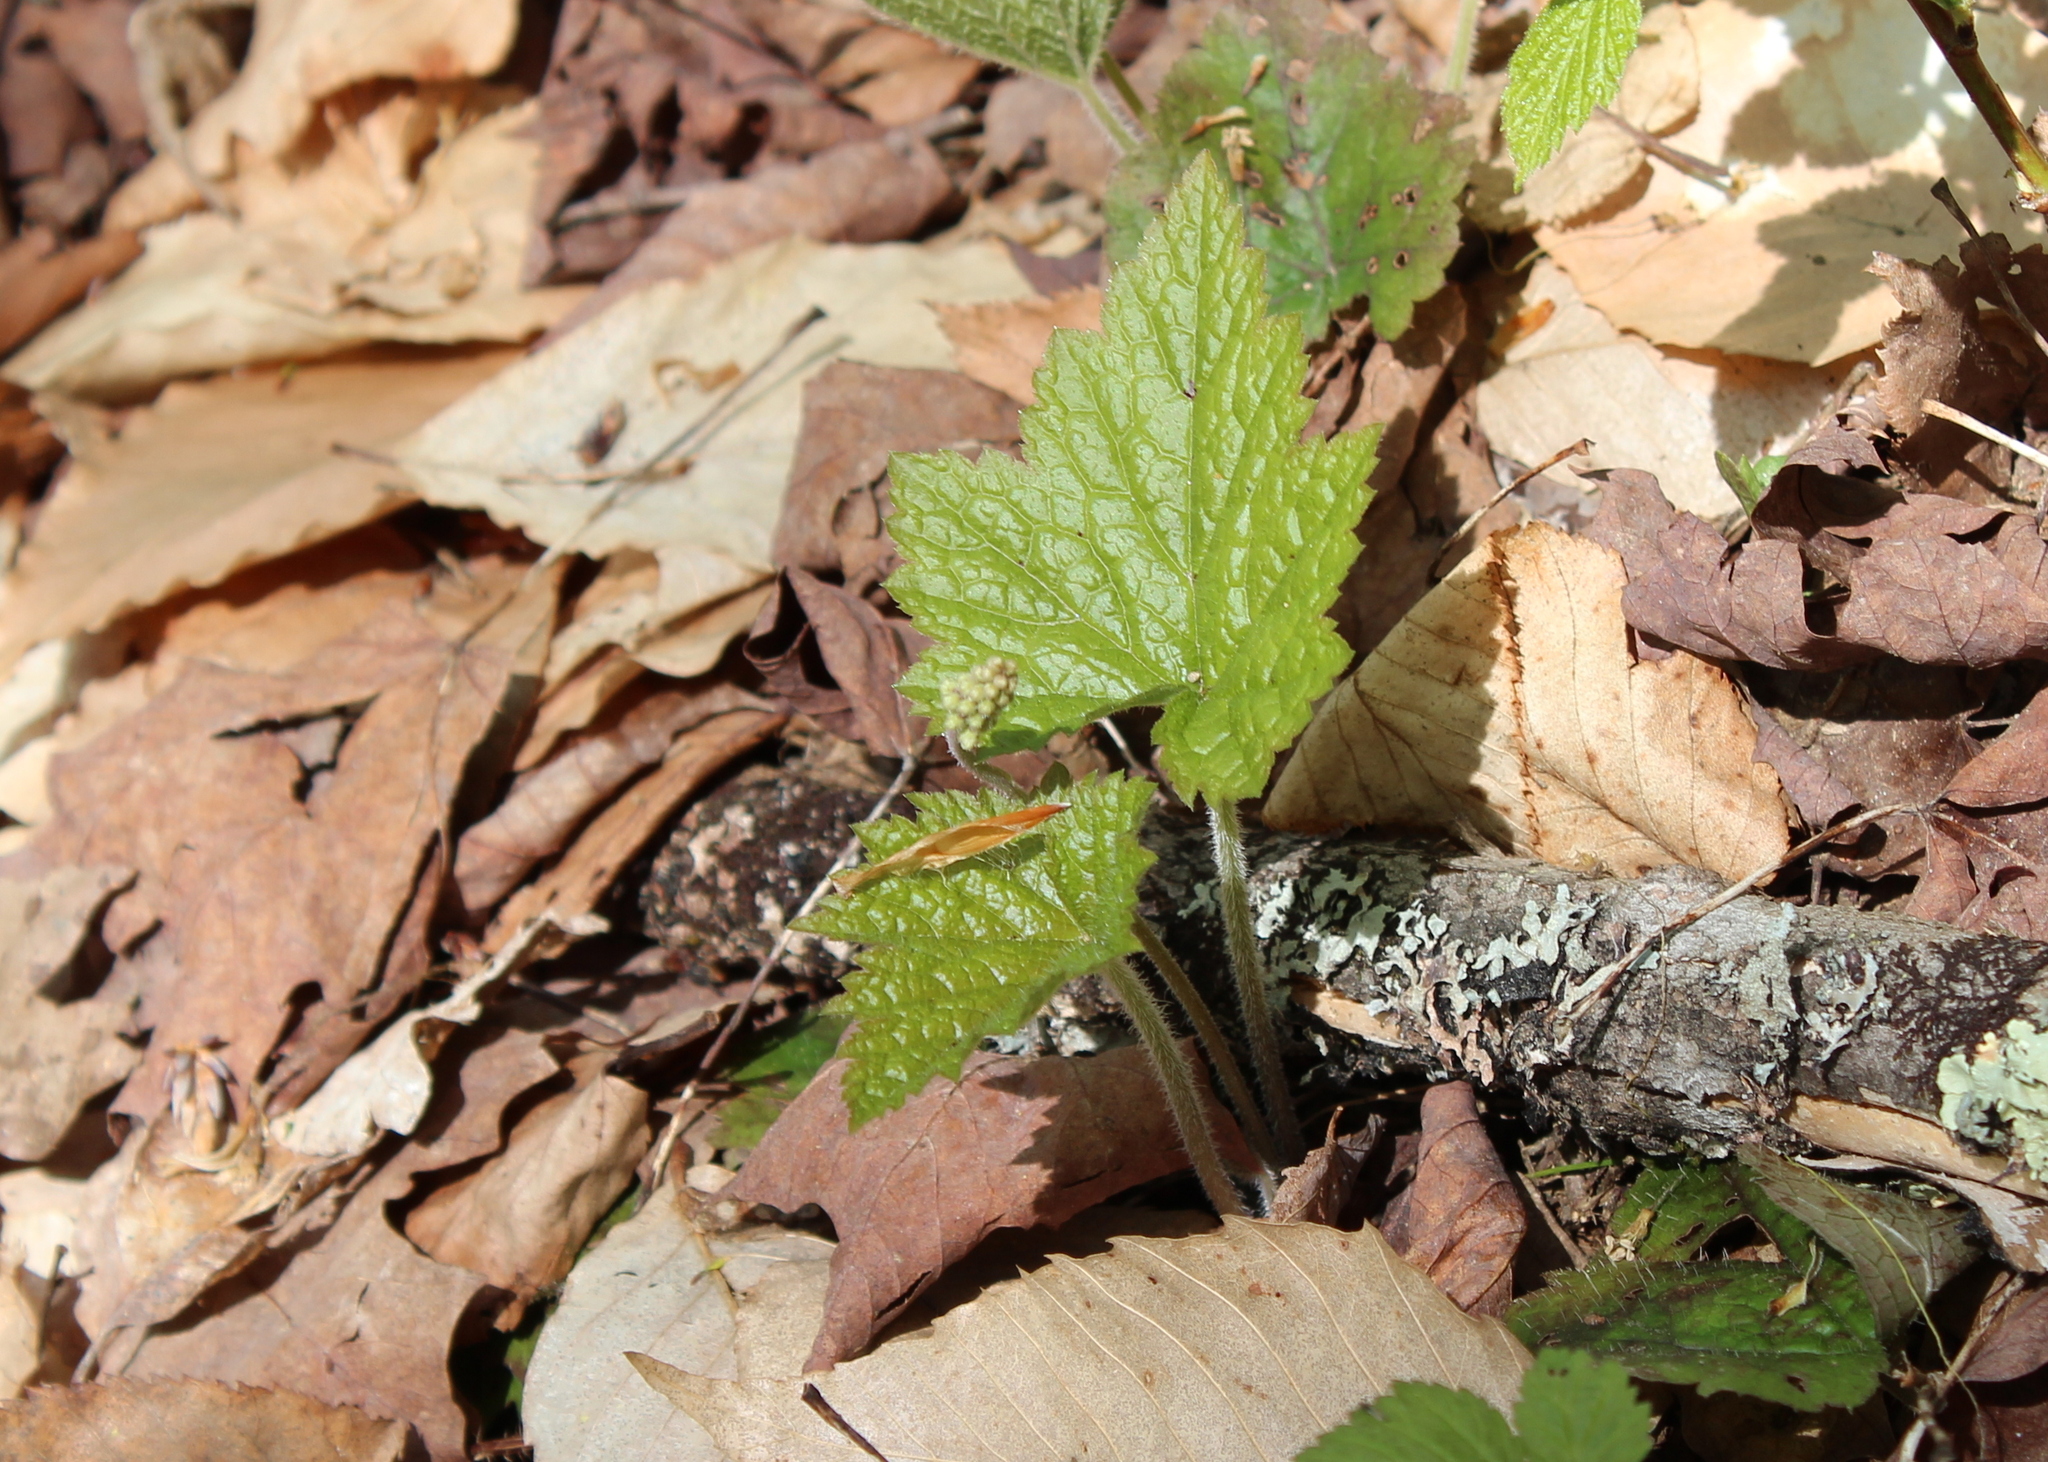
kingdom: Plantae
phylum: Tracheophyta
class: Magnoliopsida
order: Saxifragales
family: Saxifragaceae
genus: Tiarella
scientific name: Tiarella stolonifera
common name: Stoloniferous foamflower
